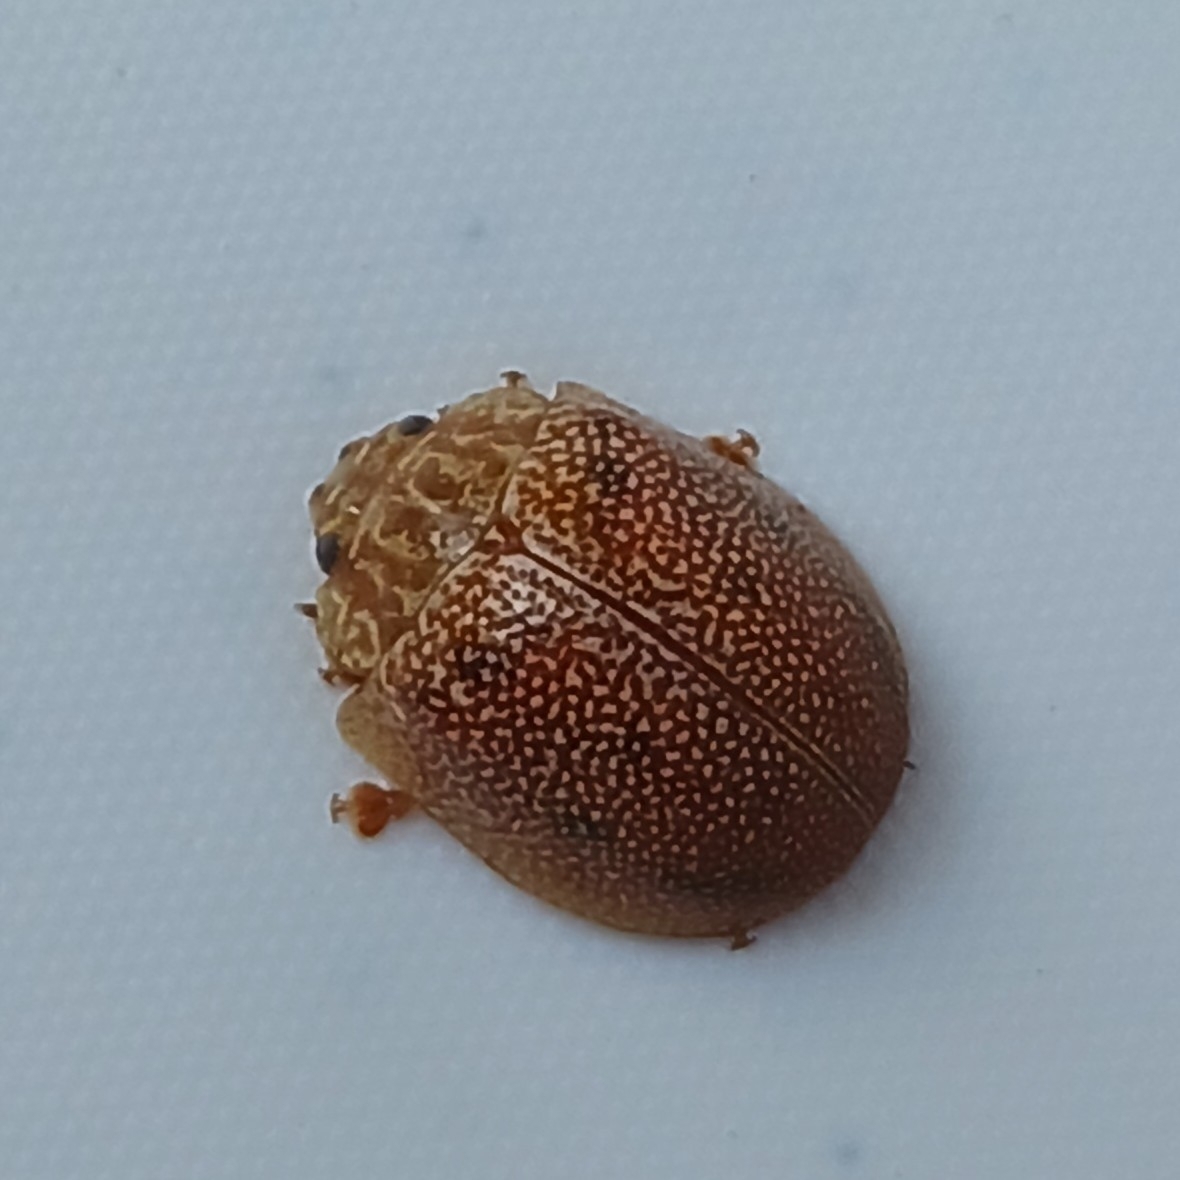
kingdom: Animalia
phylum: Arthropoda
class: Insecta
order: Coleoptera
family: Chrysomelidae
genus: Paropsis
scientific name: Paropsis
